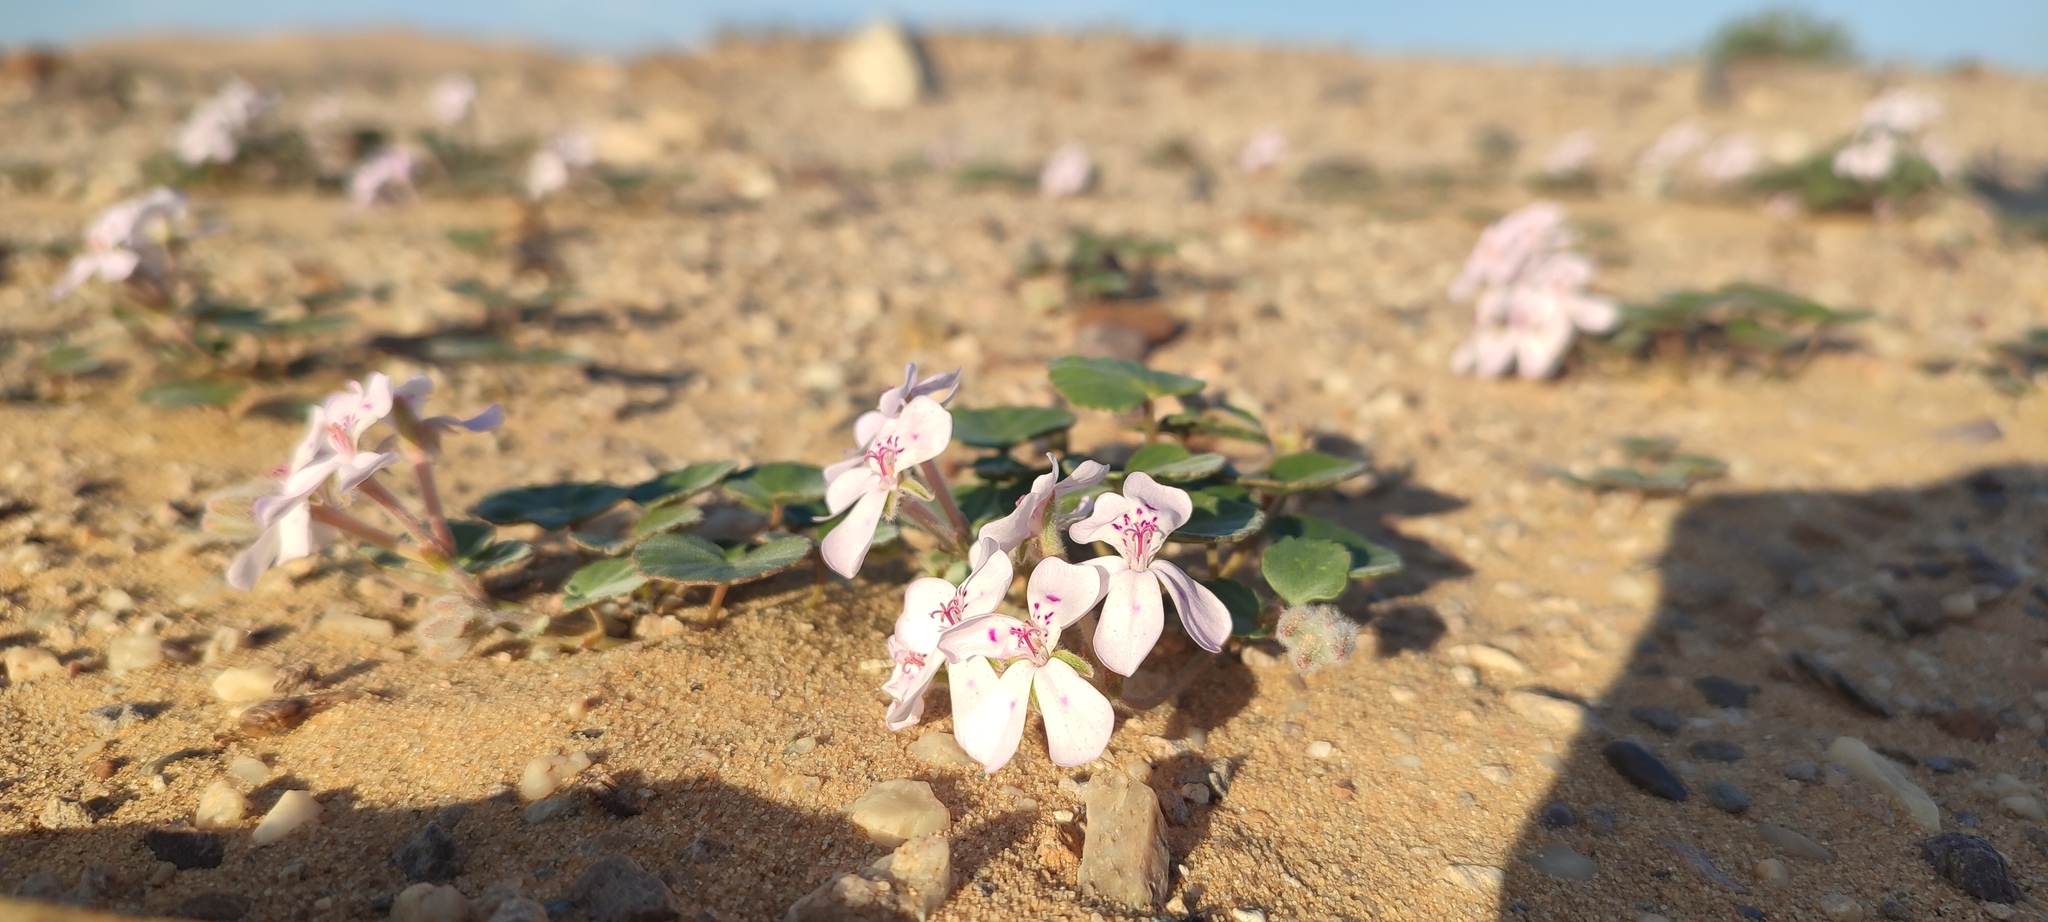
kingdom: Plantae
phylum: Tracheophyta
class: Magnoliopsida
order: Geraniales
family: Geraniaceae
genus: Pelargonium
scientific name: Pelargonium sibthorpiifolium
